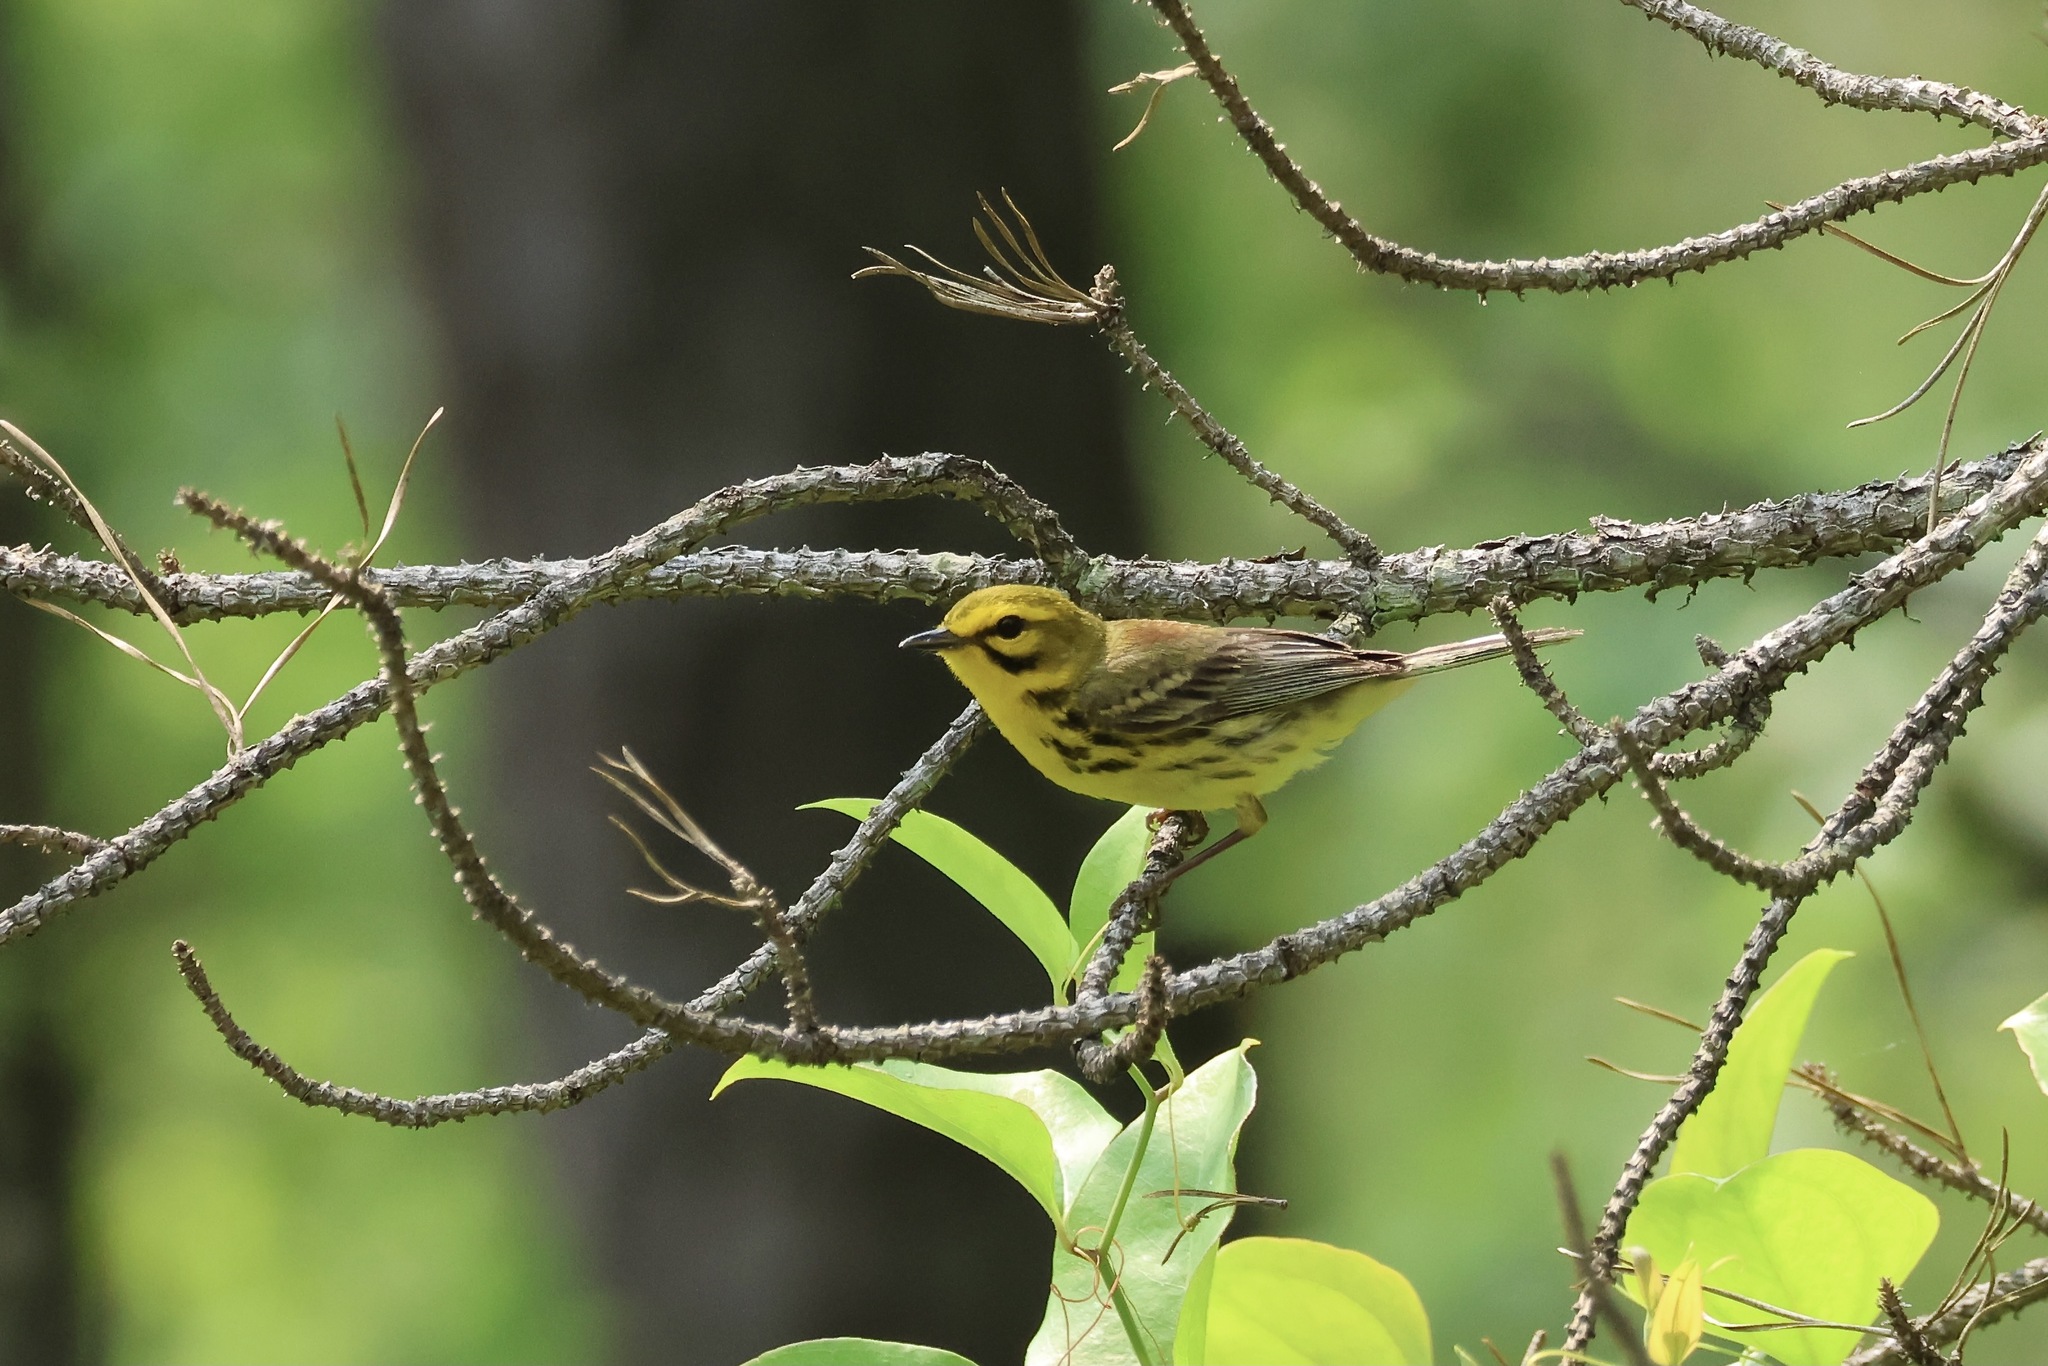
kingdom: Animalia
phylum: Chordata
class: Aves
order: Passeriformes
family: Parulidae
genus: Setophaga
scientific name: Setophaga discolor
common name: Prairie warbler
